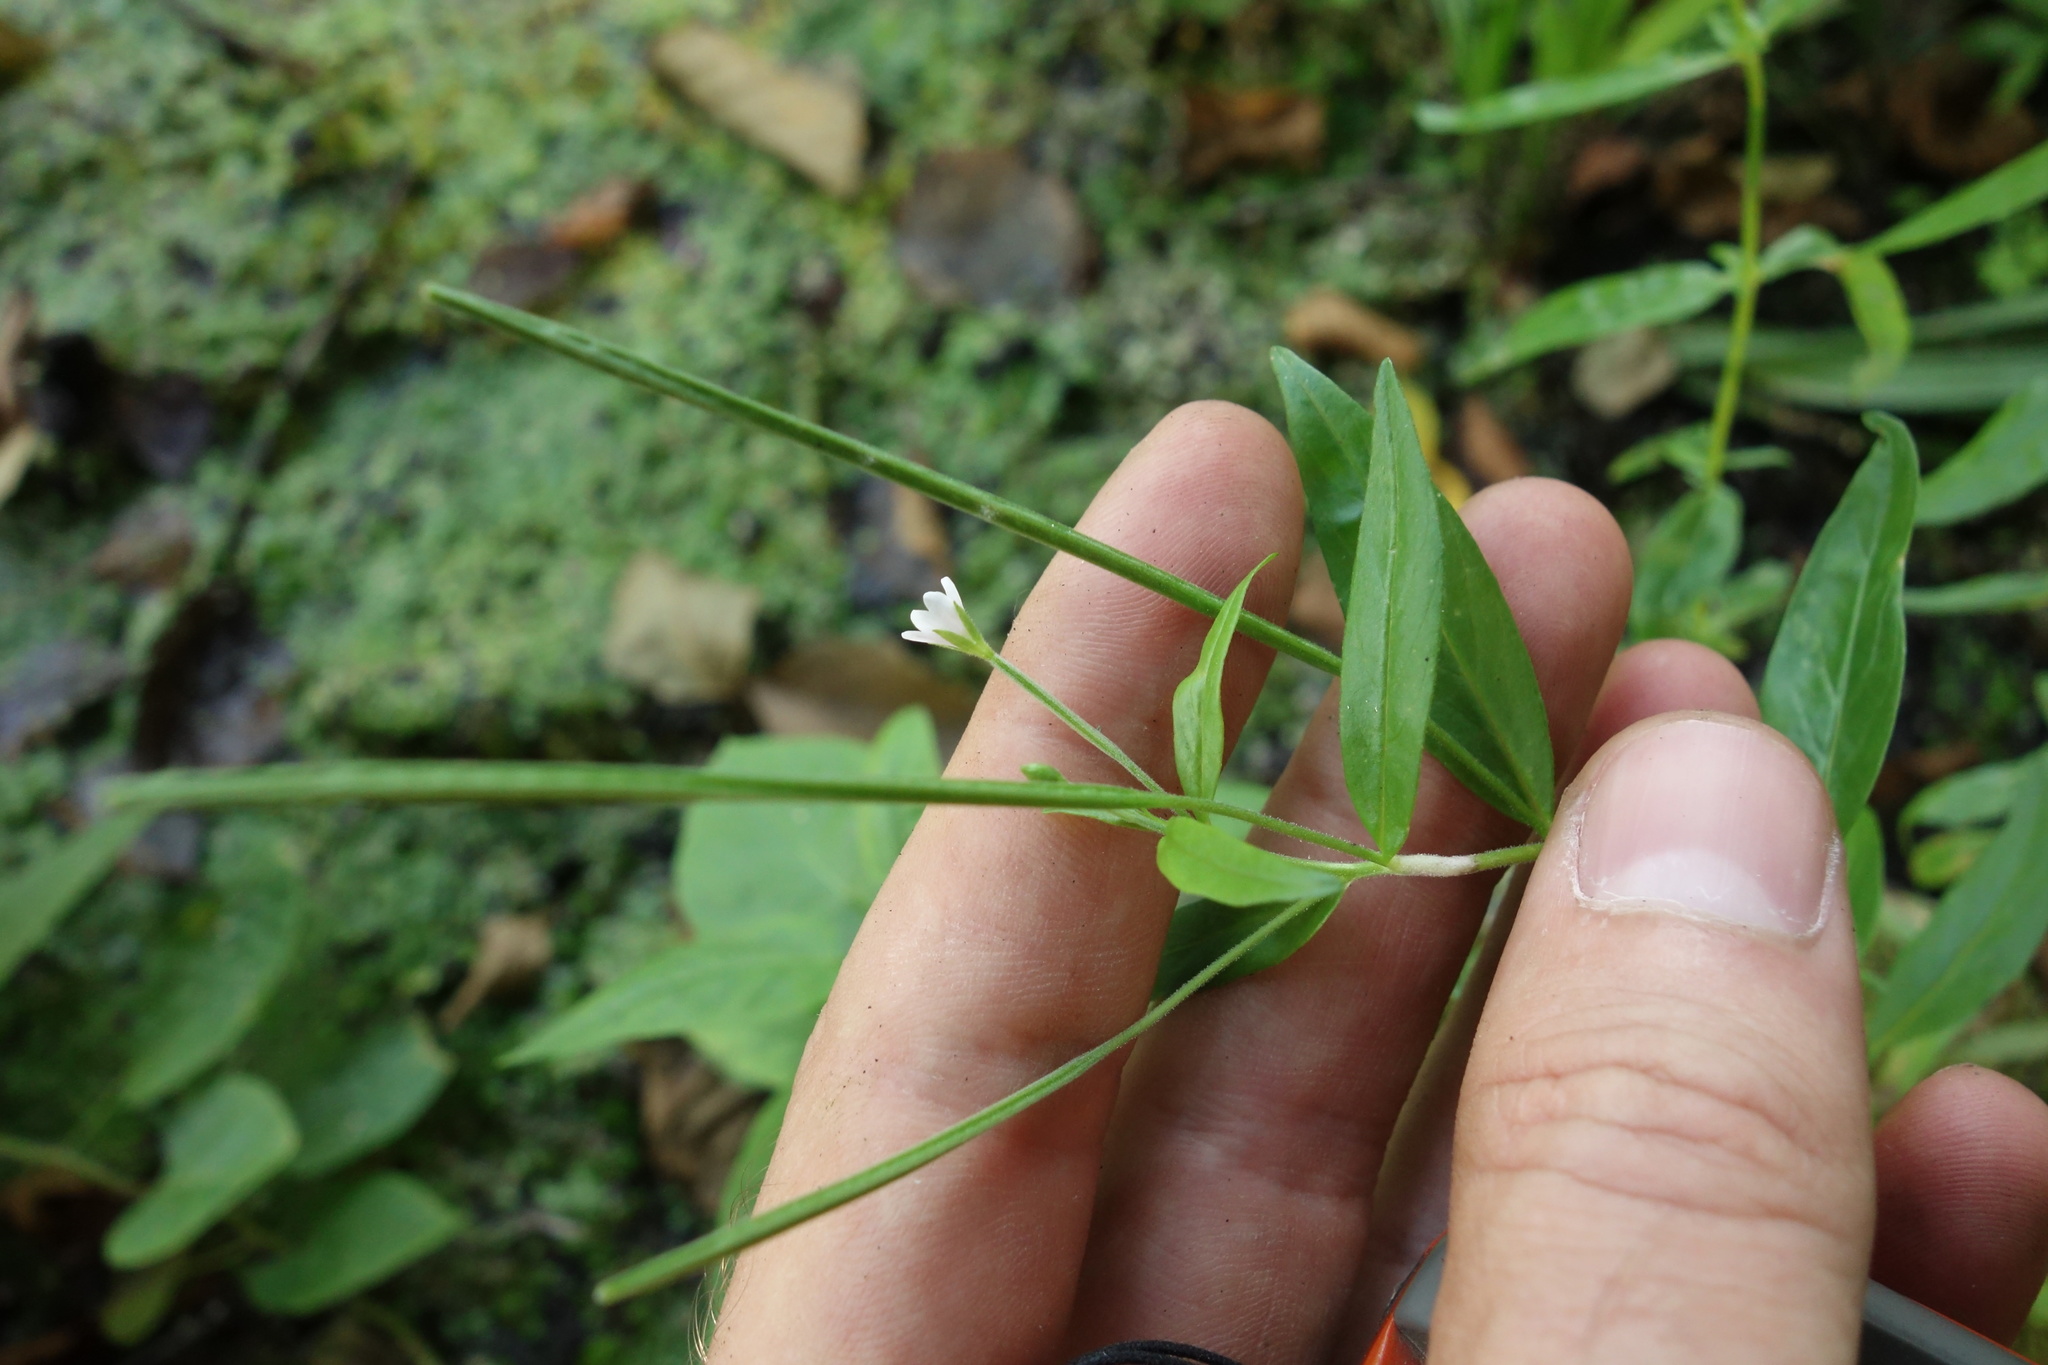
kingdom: Plantae
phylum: Tracheophyta
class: Magnoliopsida
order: Myrtales
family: Onagraceae
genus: Epilobium
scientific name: Epilobium palustre
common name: Marsh willowherb
